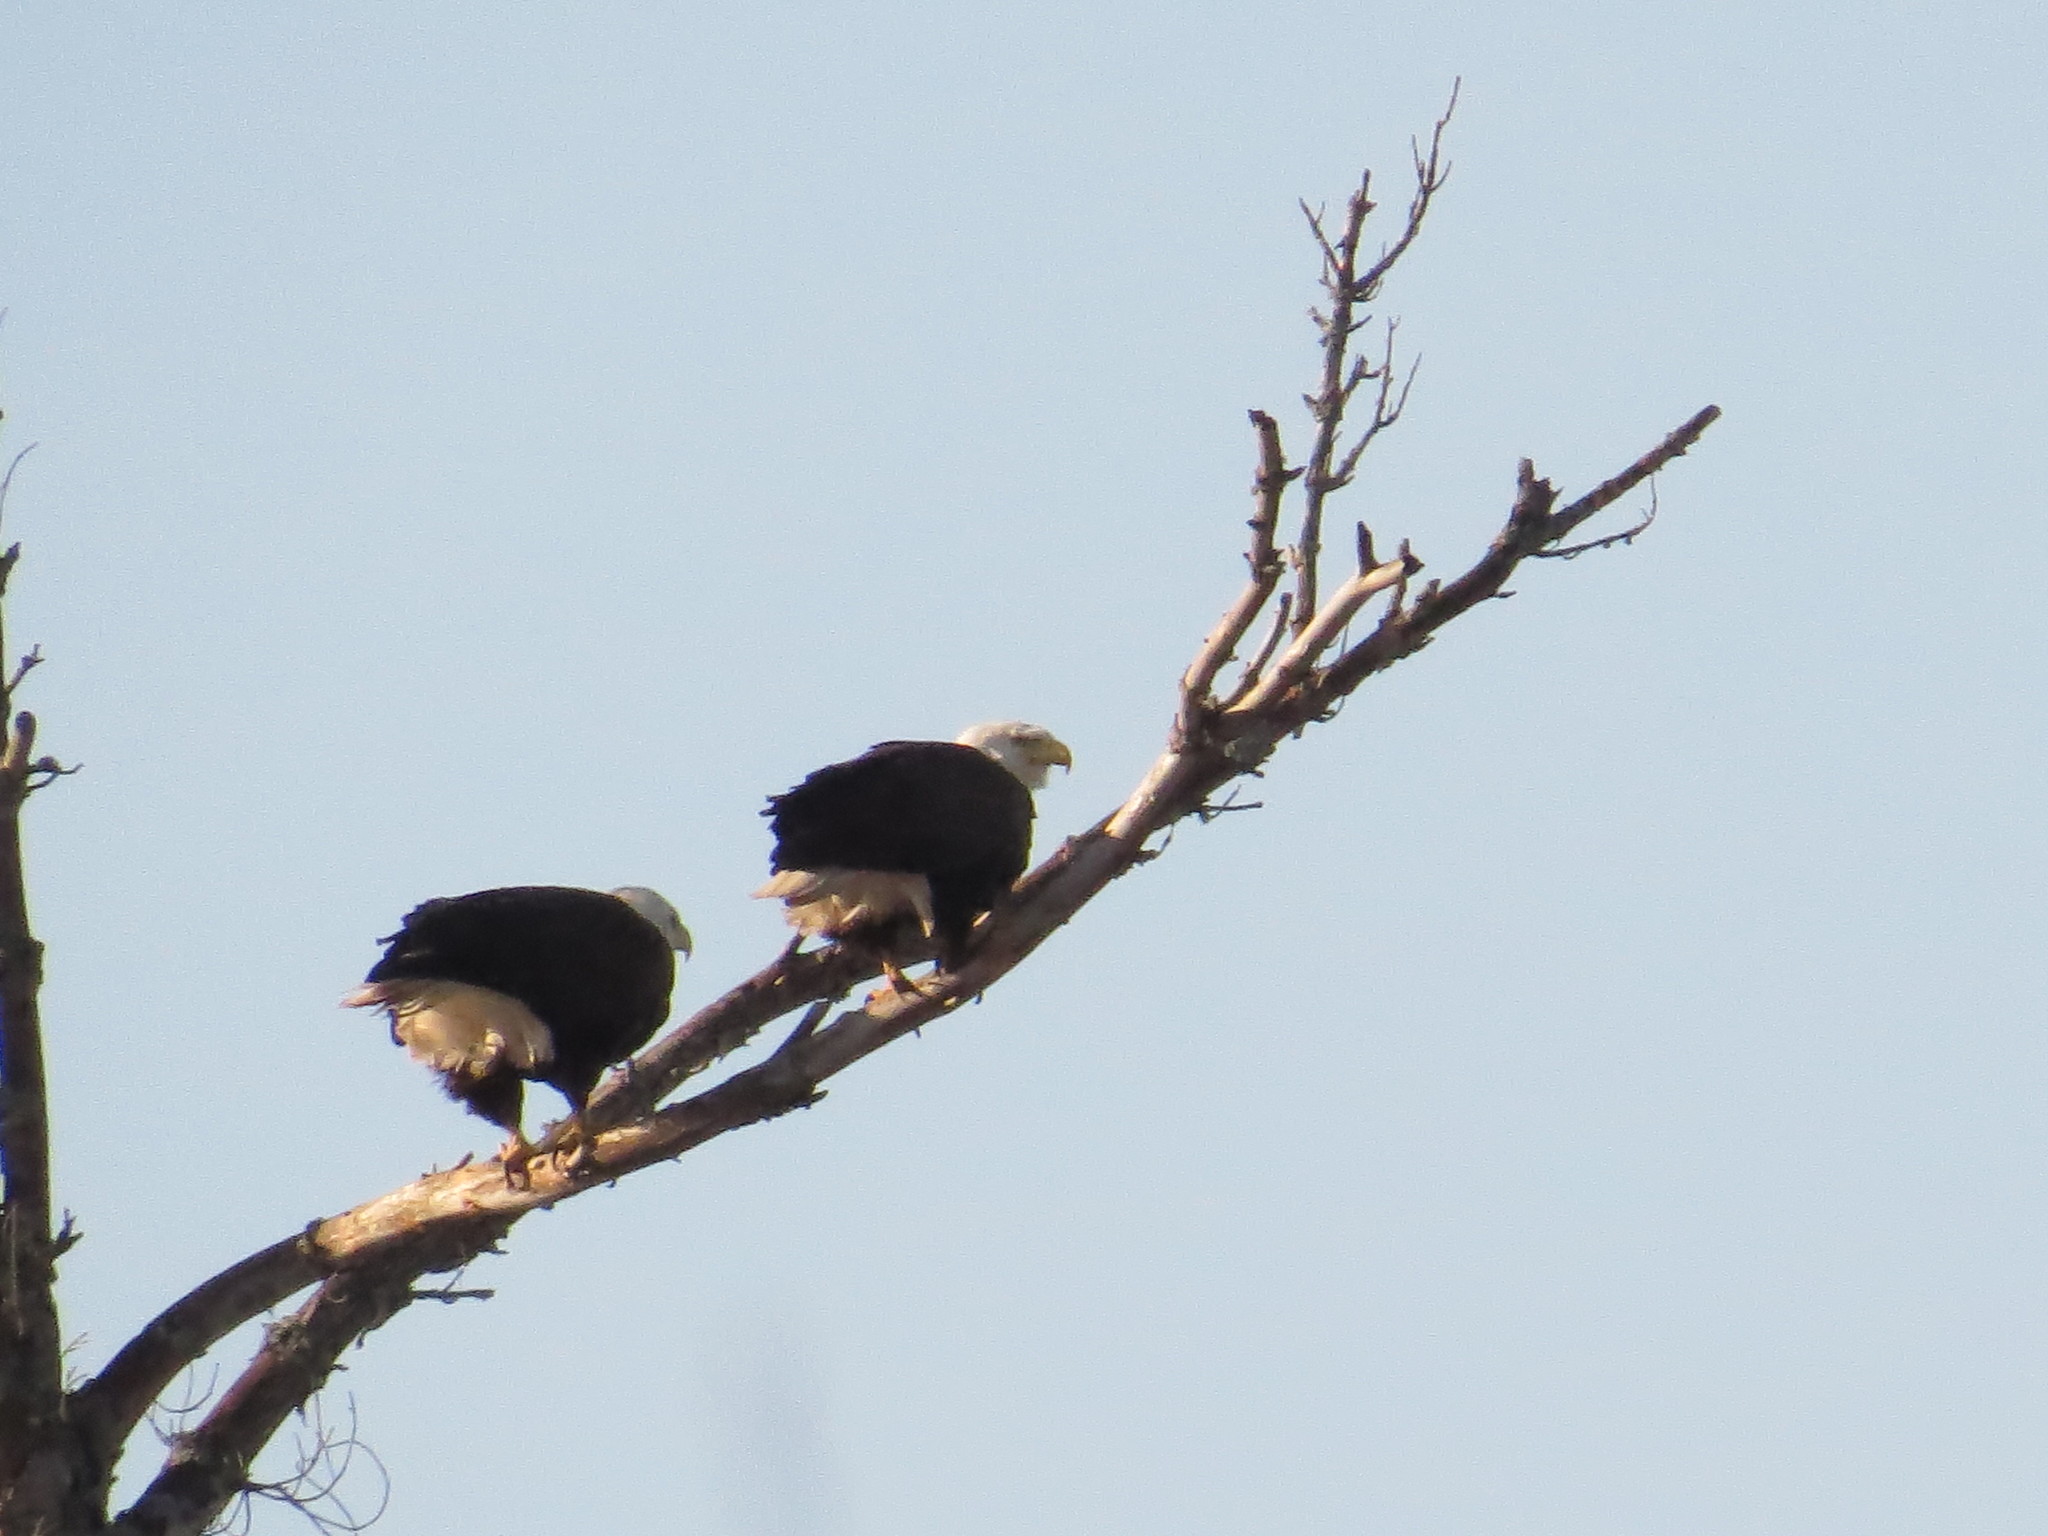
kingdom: Animalia
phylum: Chordata
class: Aves
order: Accipitriformes
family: Accipitridae
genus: Haliaeetus
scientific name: Haliaeetus leucocephalus
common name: Bald eagle
